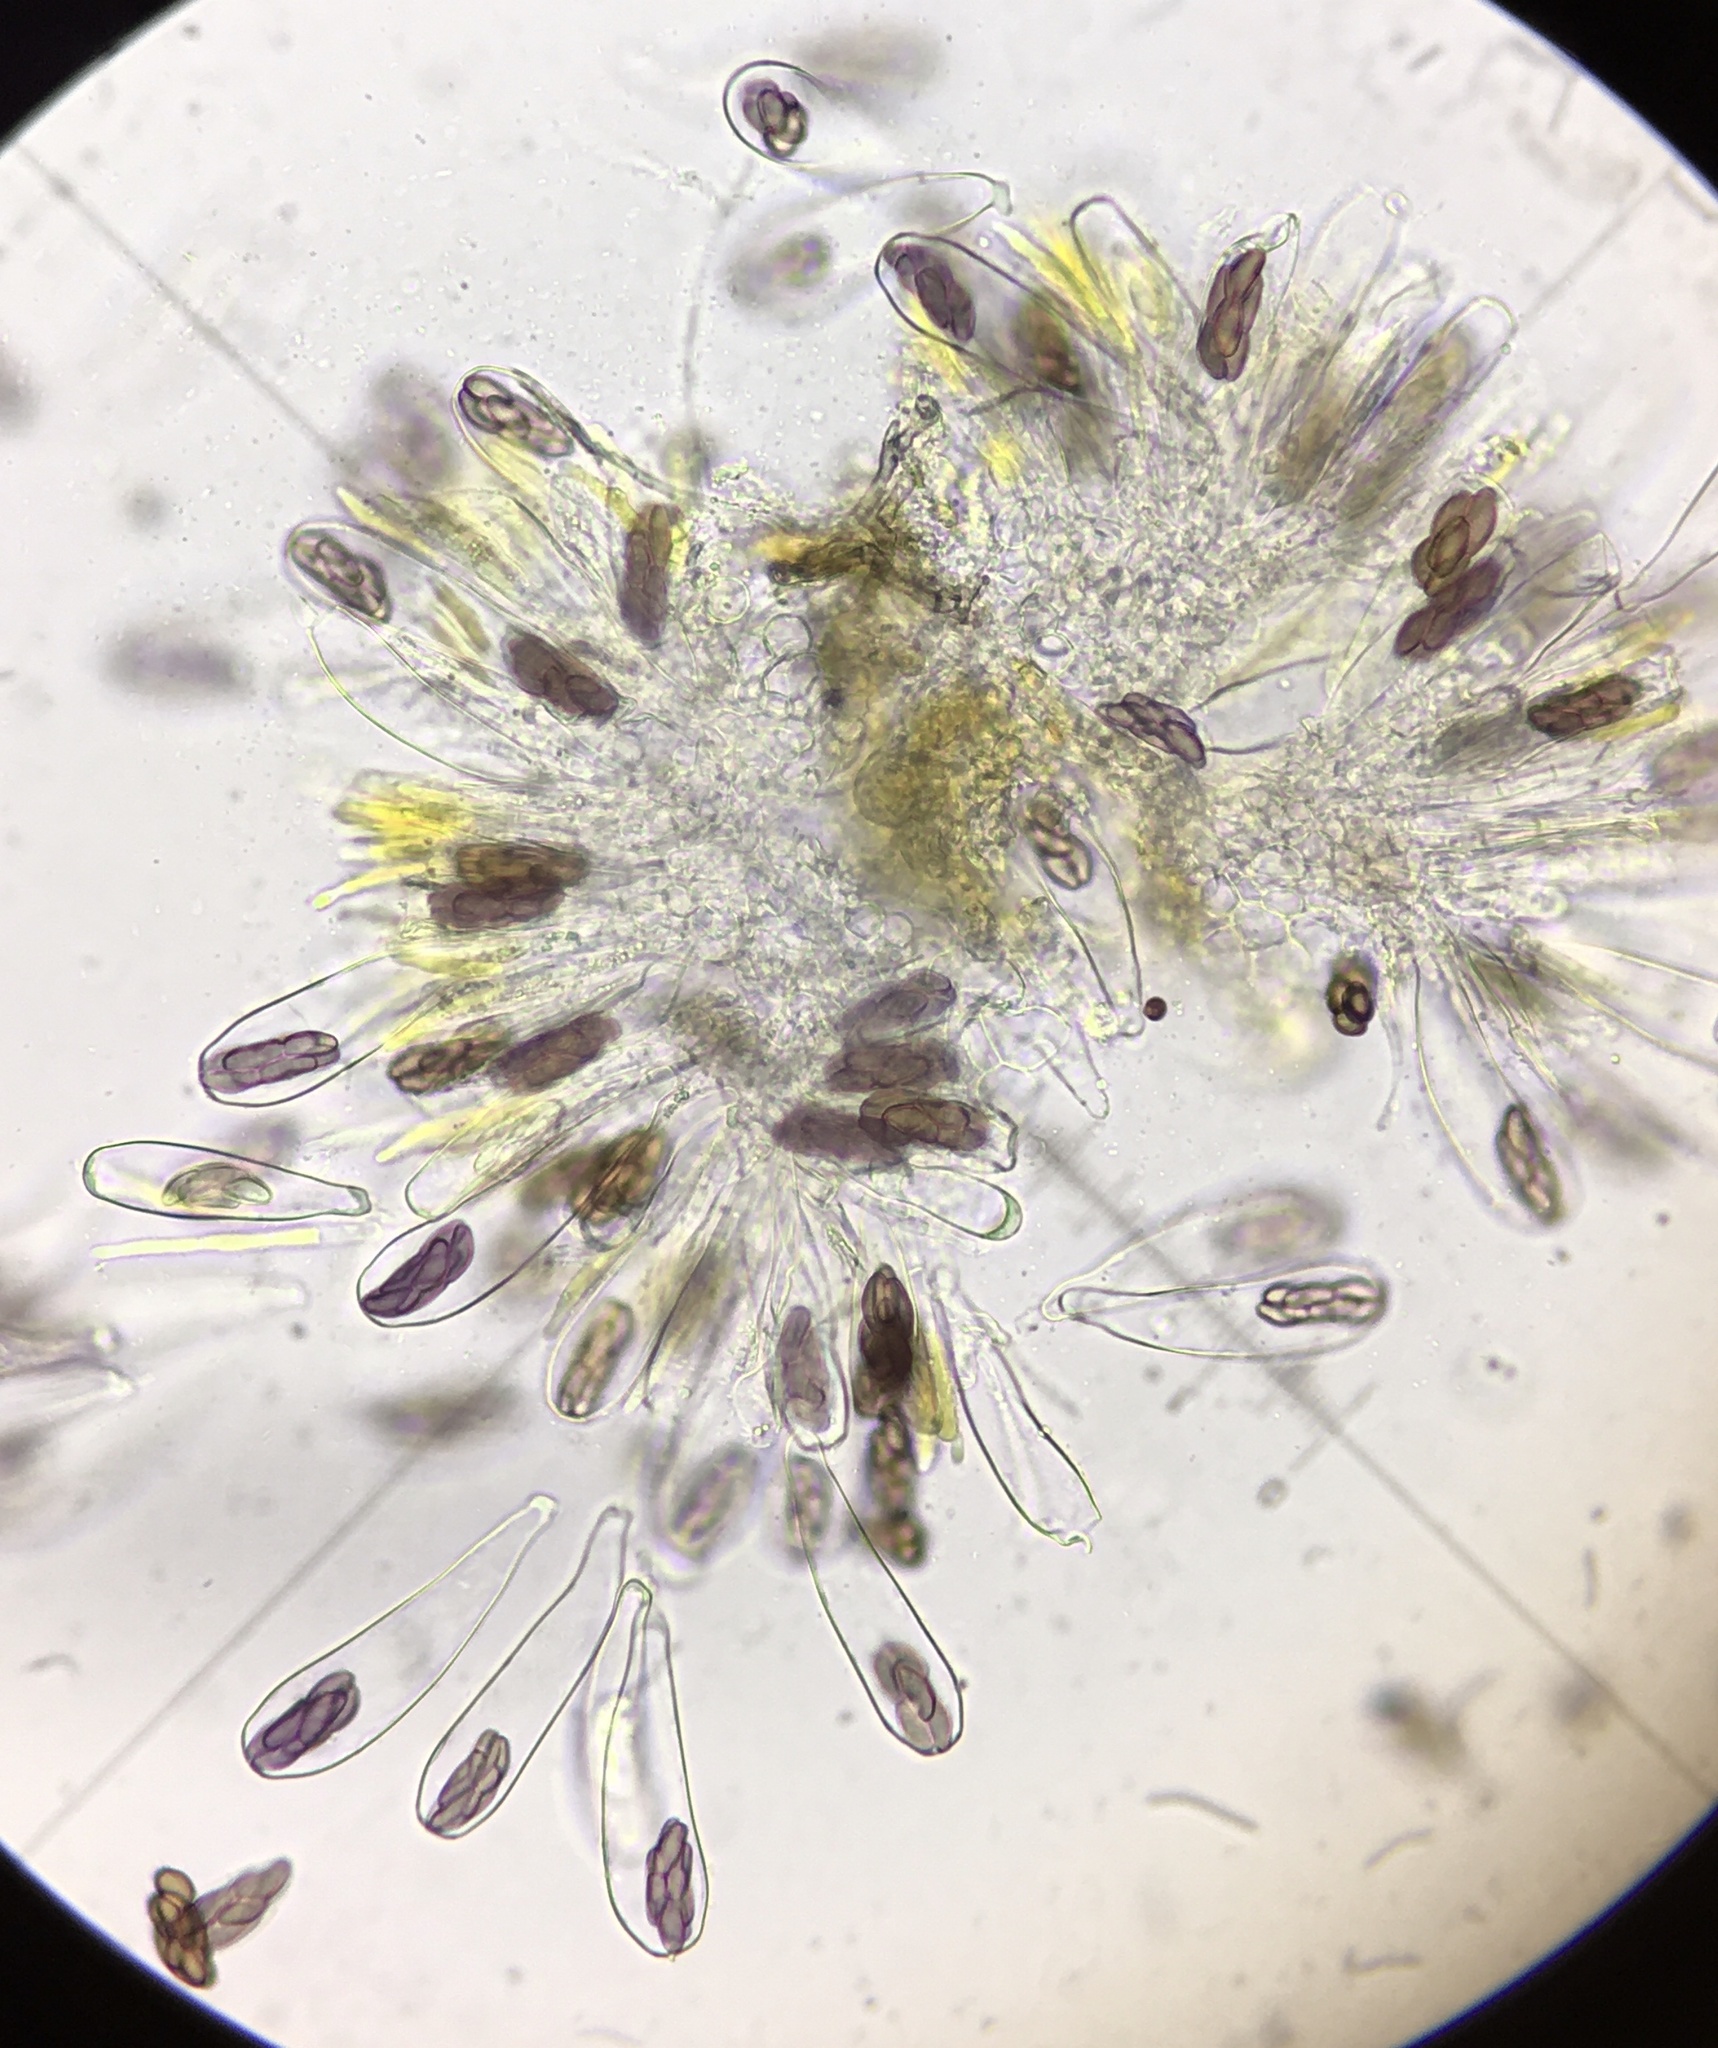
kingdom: Fungi
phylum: Ascomycota
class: Pezizomycetes
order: Pezizales
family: Ascobolaceae
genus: Saccobolus
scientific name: Saccobolus minimoides
